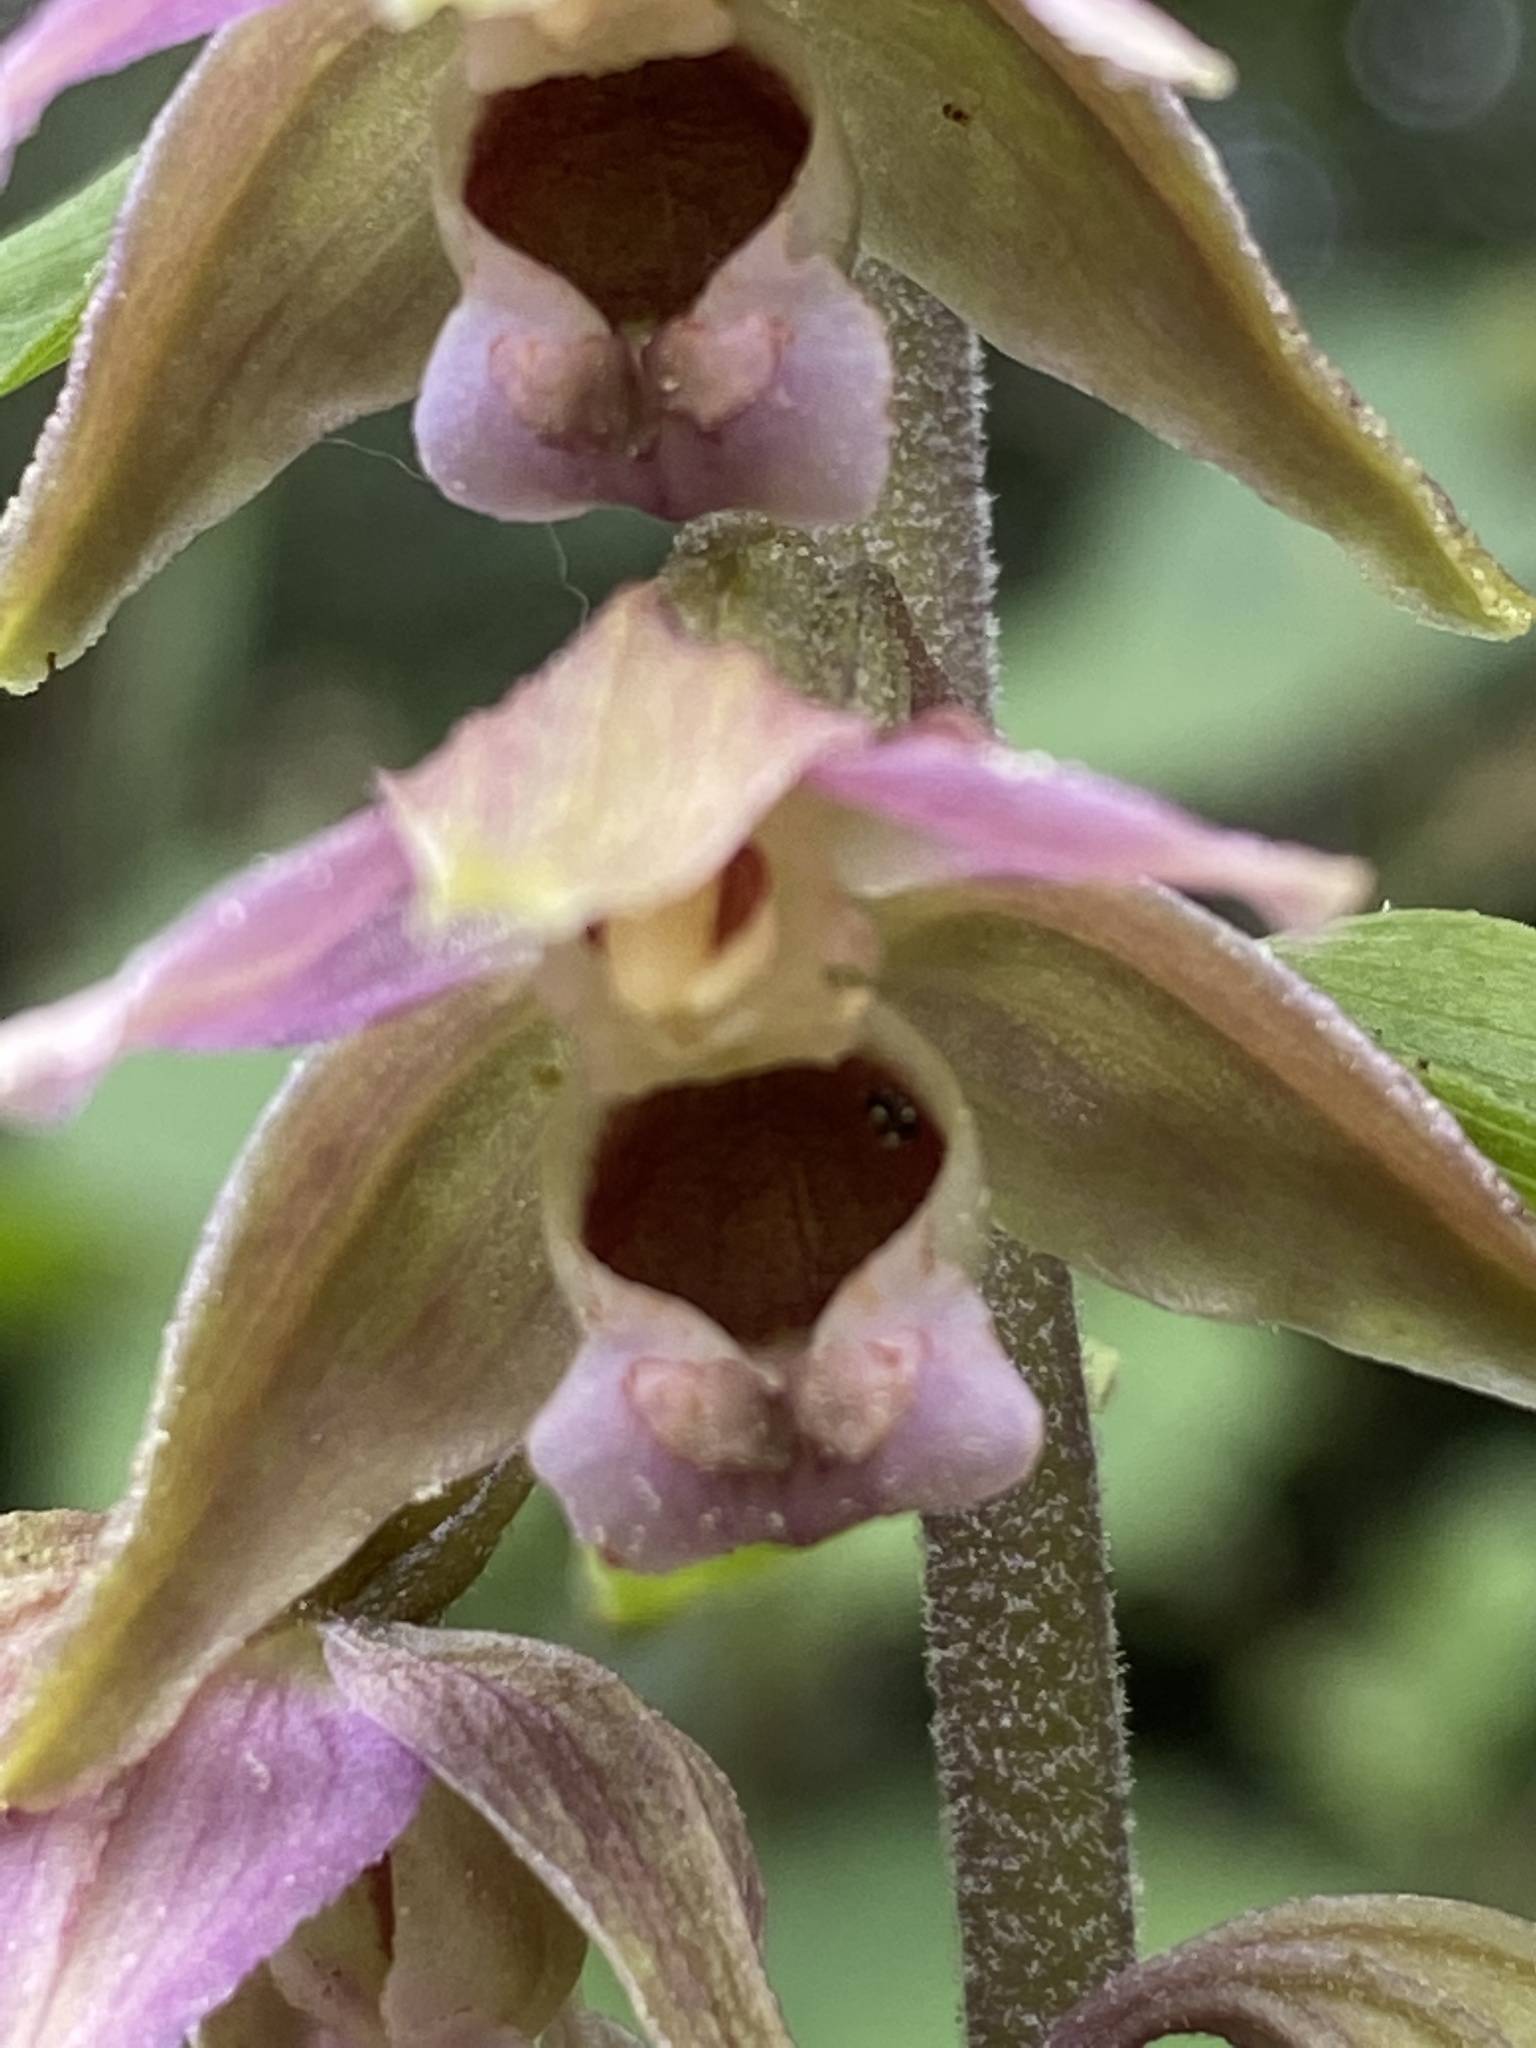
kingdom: Plantae
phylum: Tracheophyta
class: Liliopsida
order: Asparagales
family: Orchidaceae
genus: Epipactis
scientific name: Epipactis helleborine
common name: Broad-leaved helleborine
